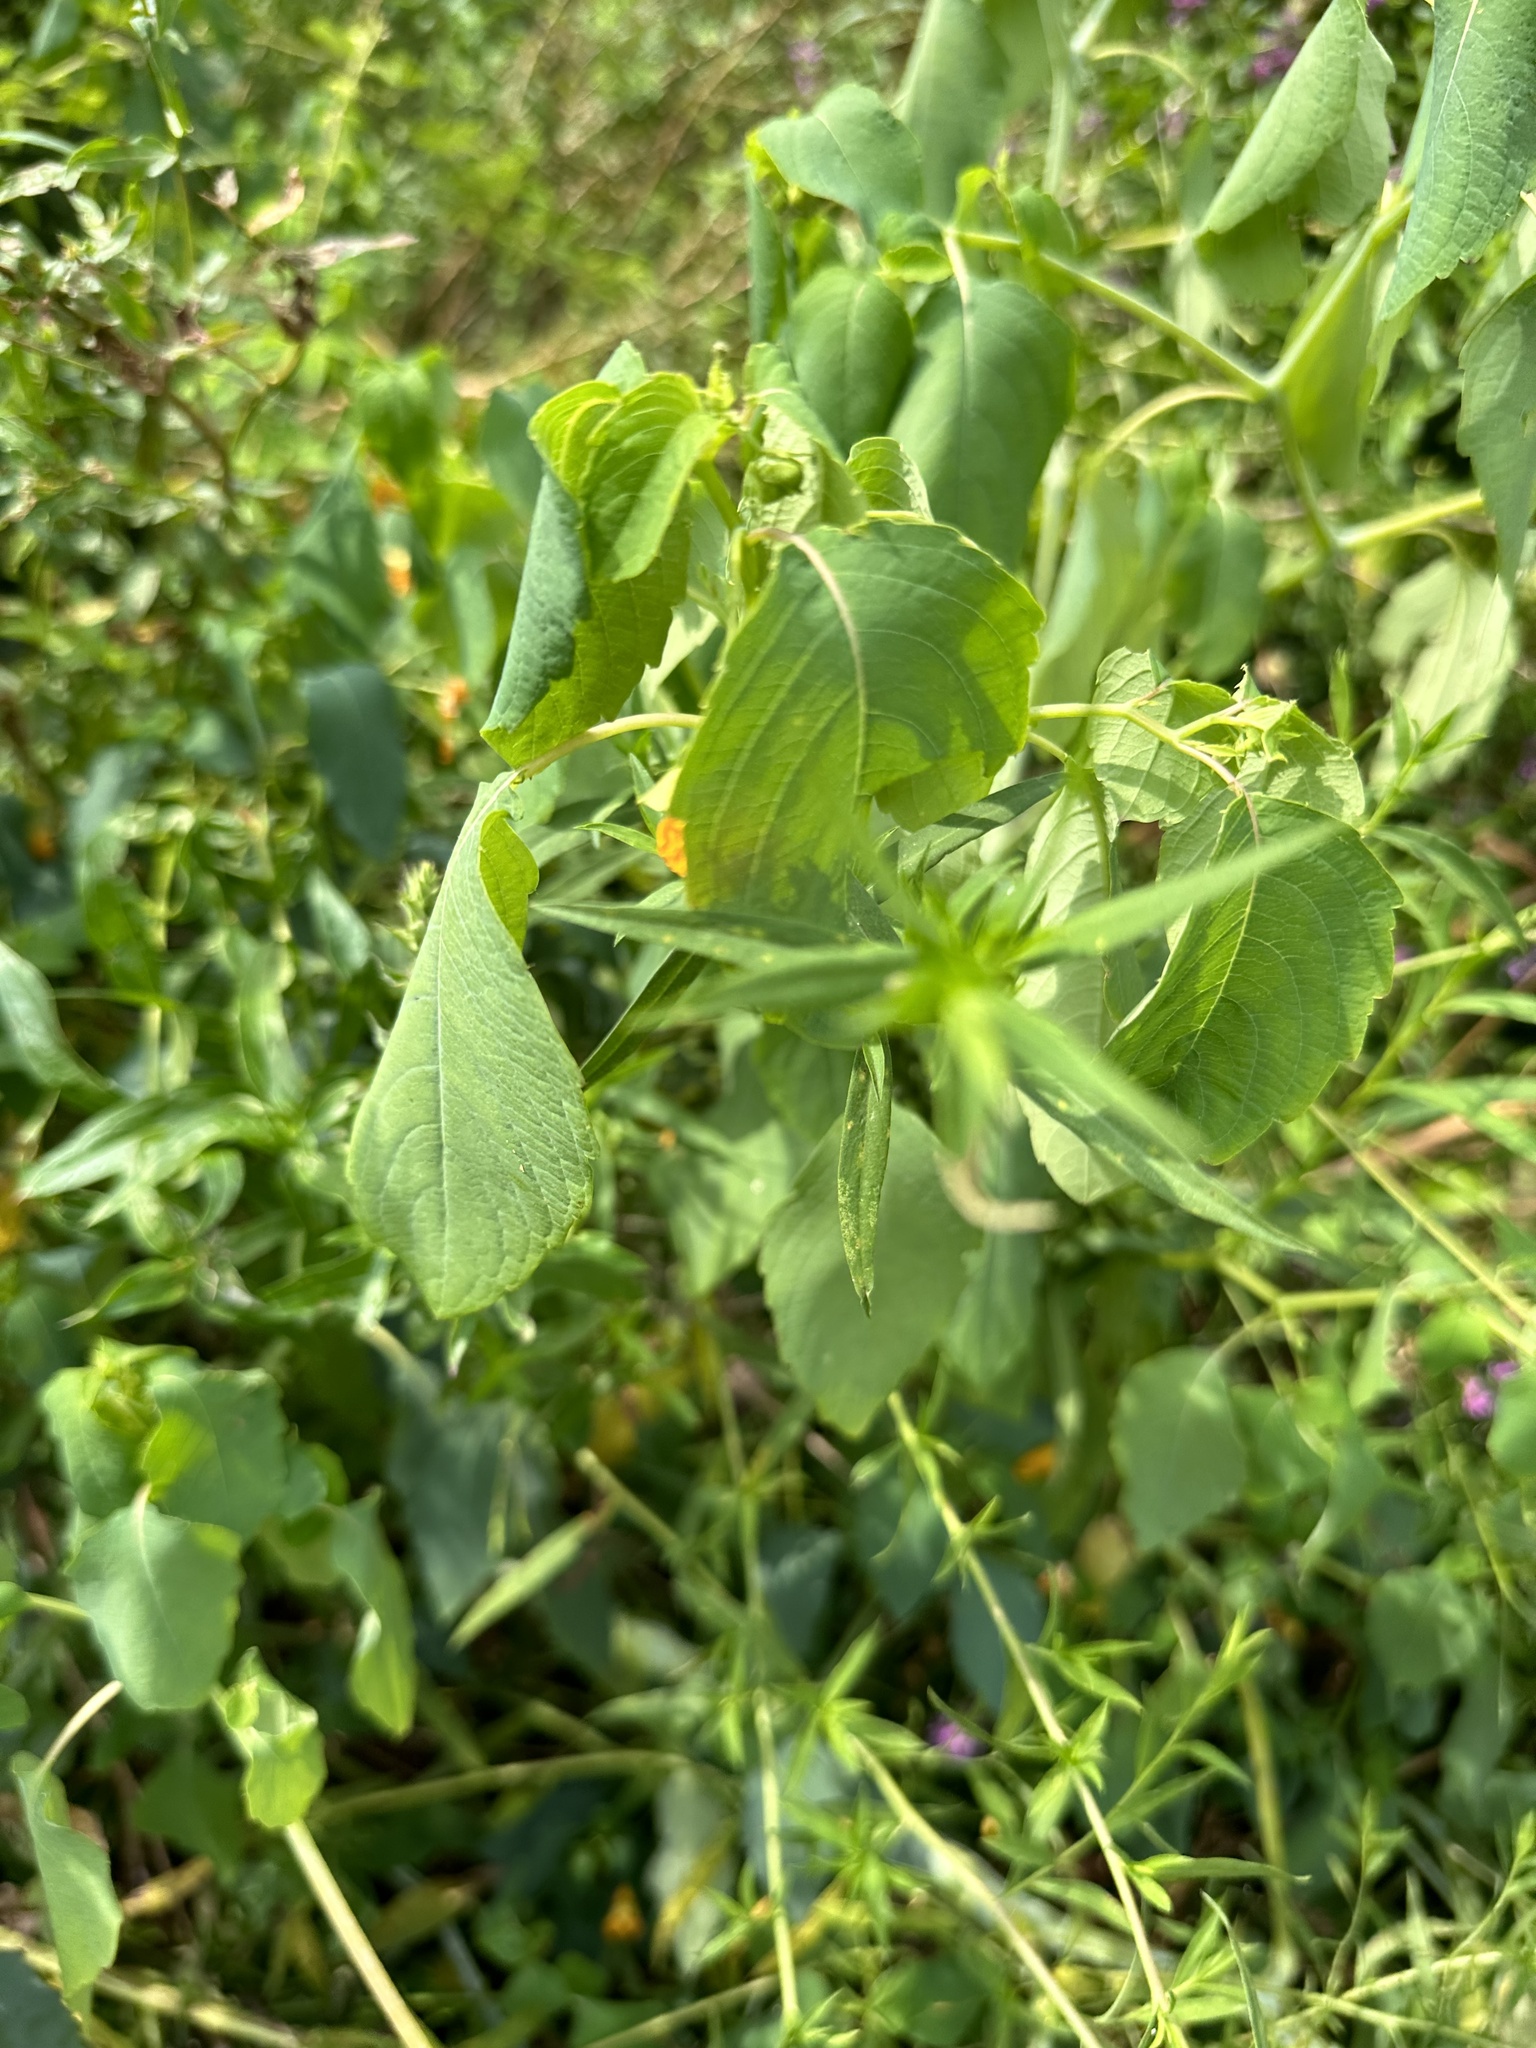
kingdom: Plantae
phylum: Tracheophyta
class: Magnoliopsida
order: Ericales
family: Balsaminaceae
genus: Impatiens
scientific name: Impatiens capensis
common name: Orange balsam
